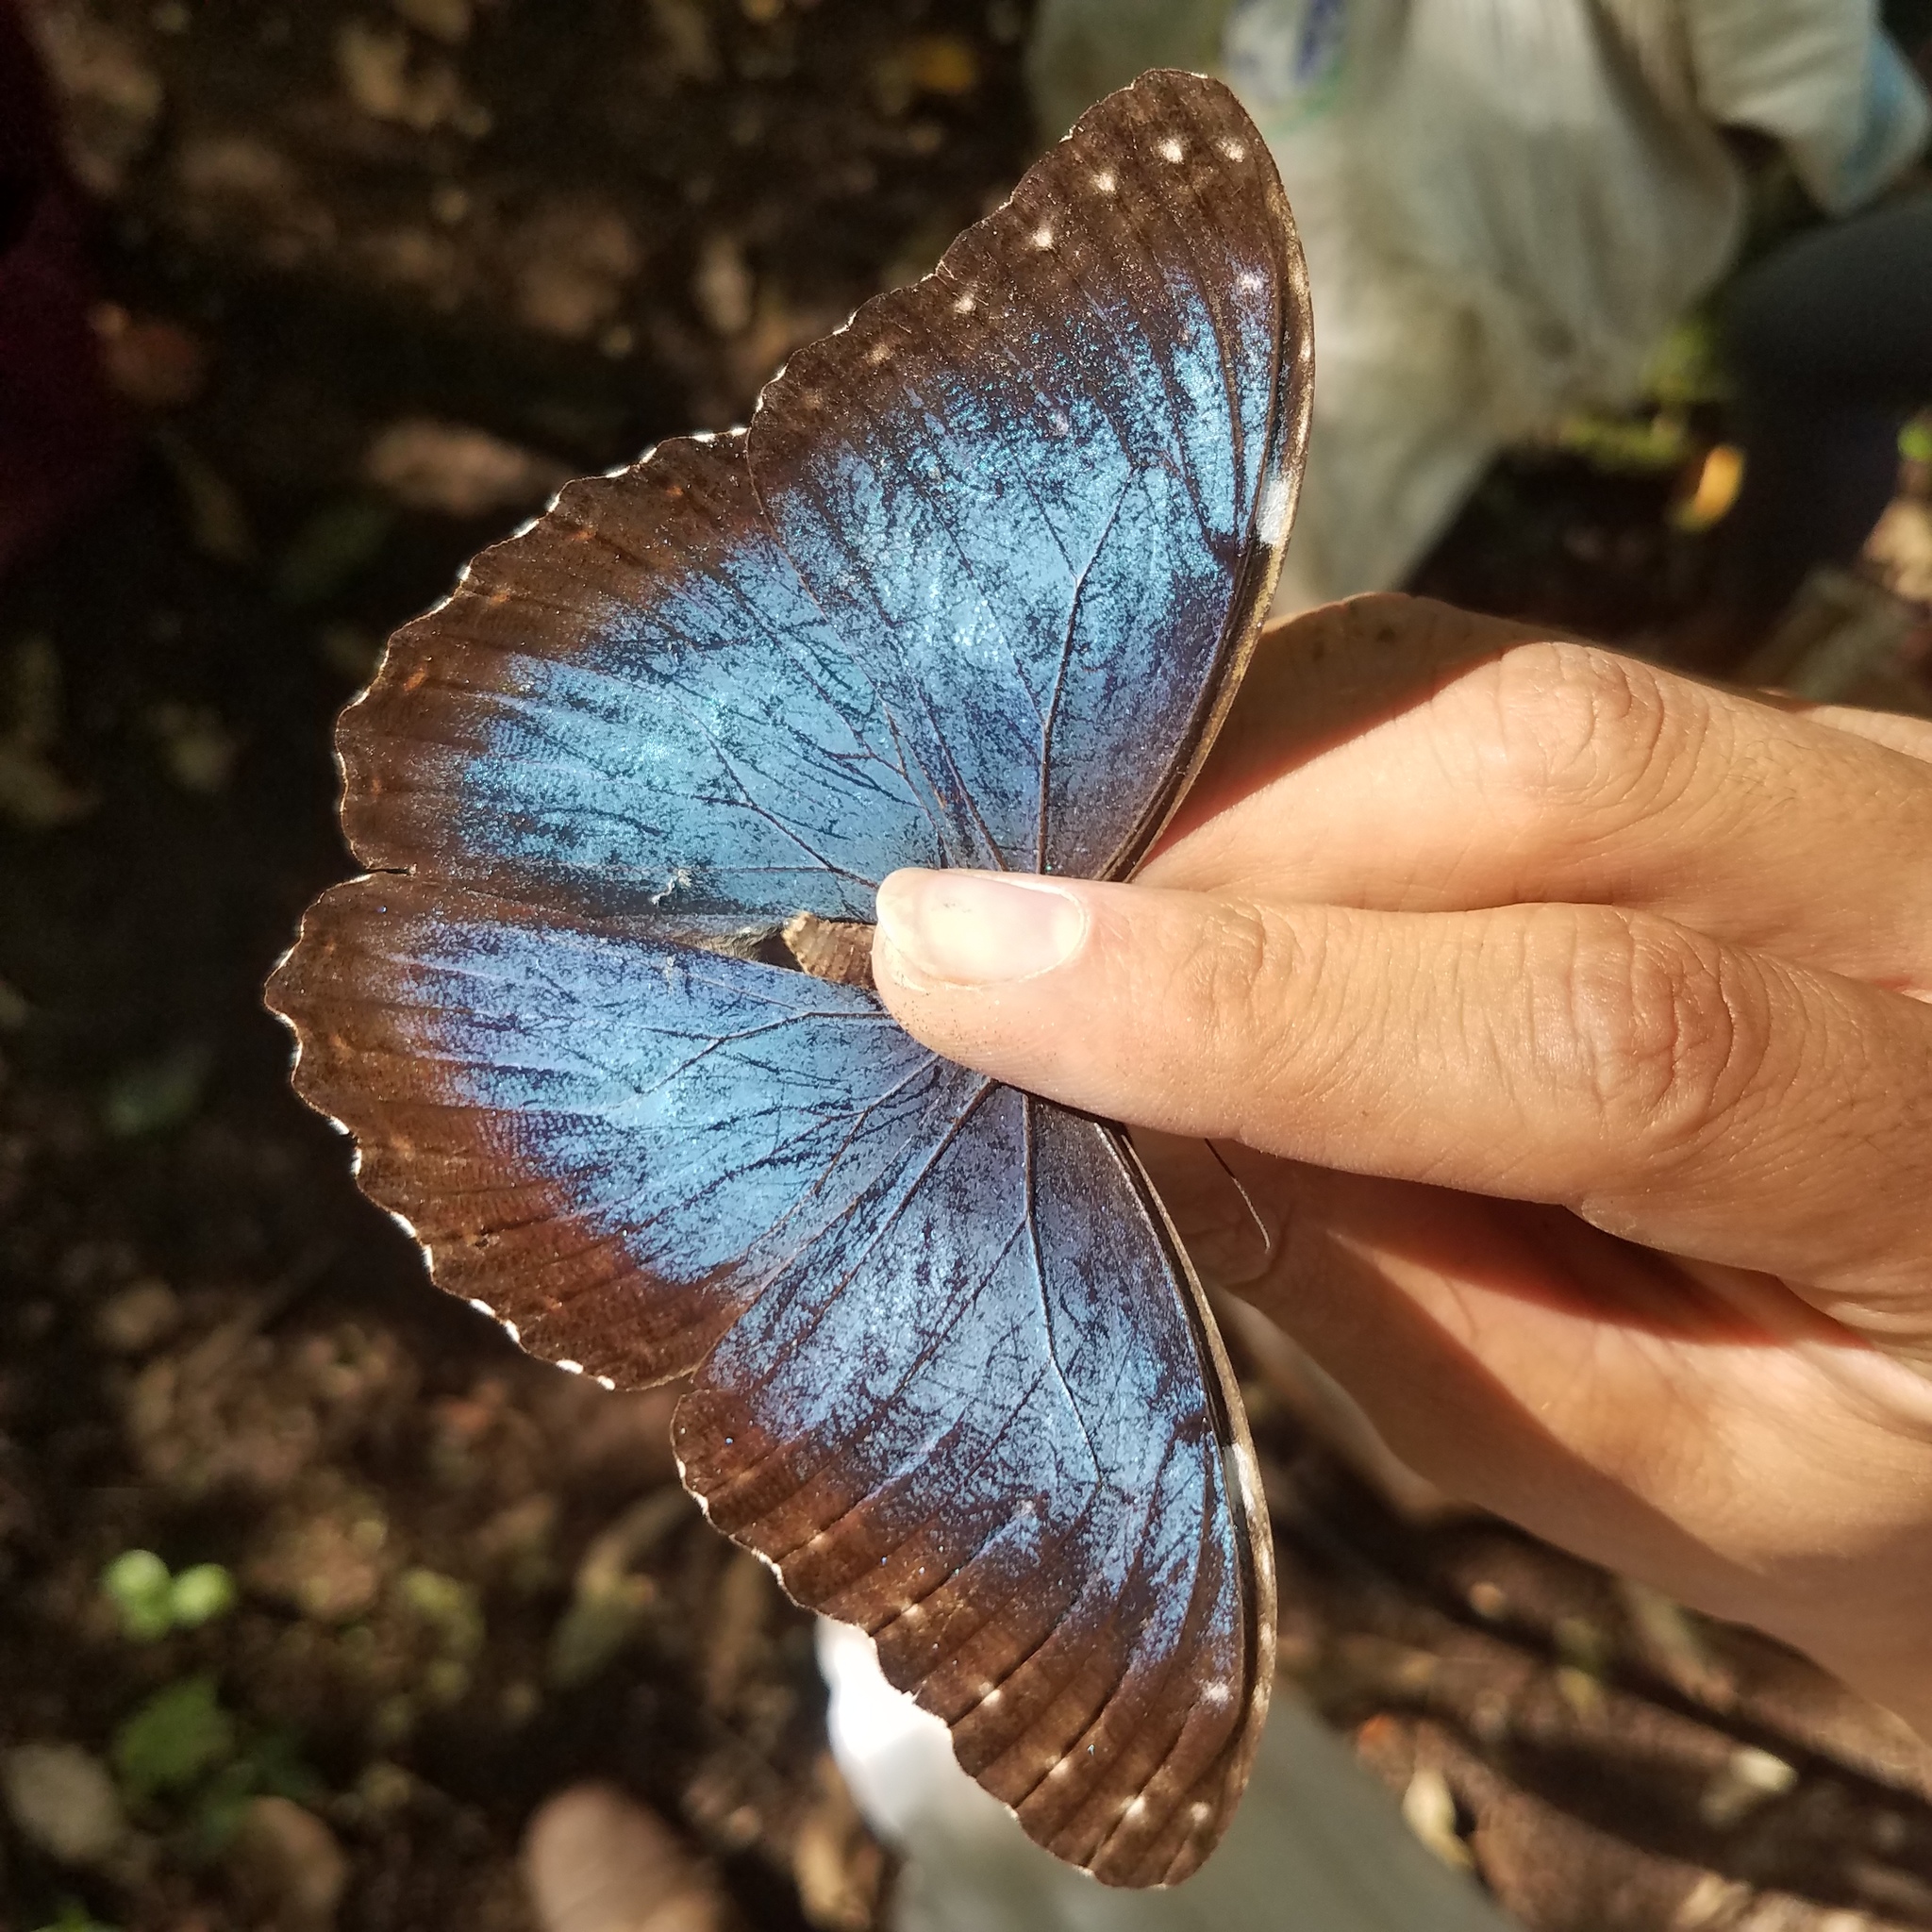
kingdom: Animalia
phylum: Arthropoda
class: Insecta
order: Lepidoptera
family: Nymphalidae
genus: Morpho
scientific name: Morpho helenor
